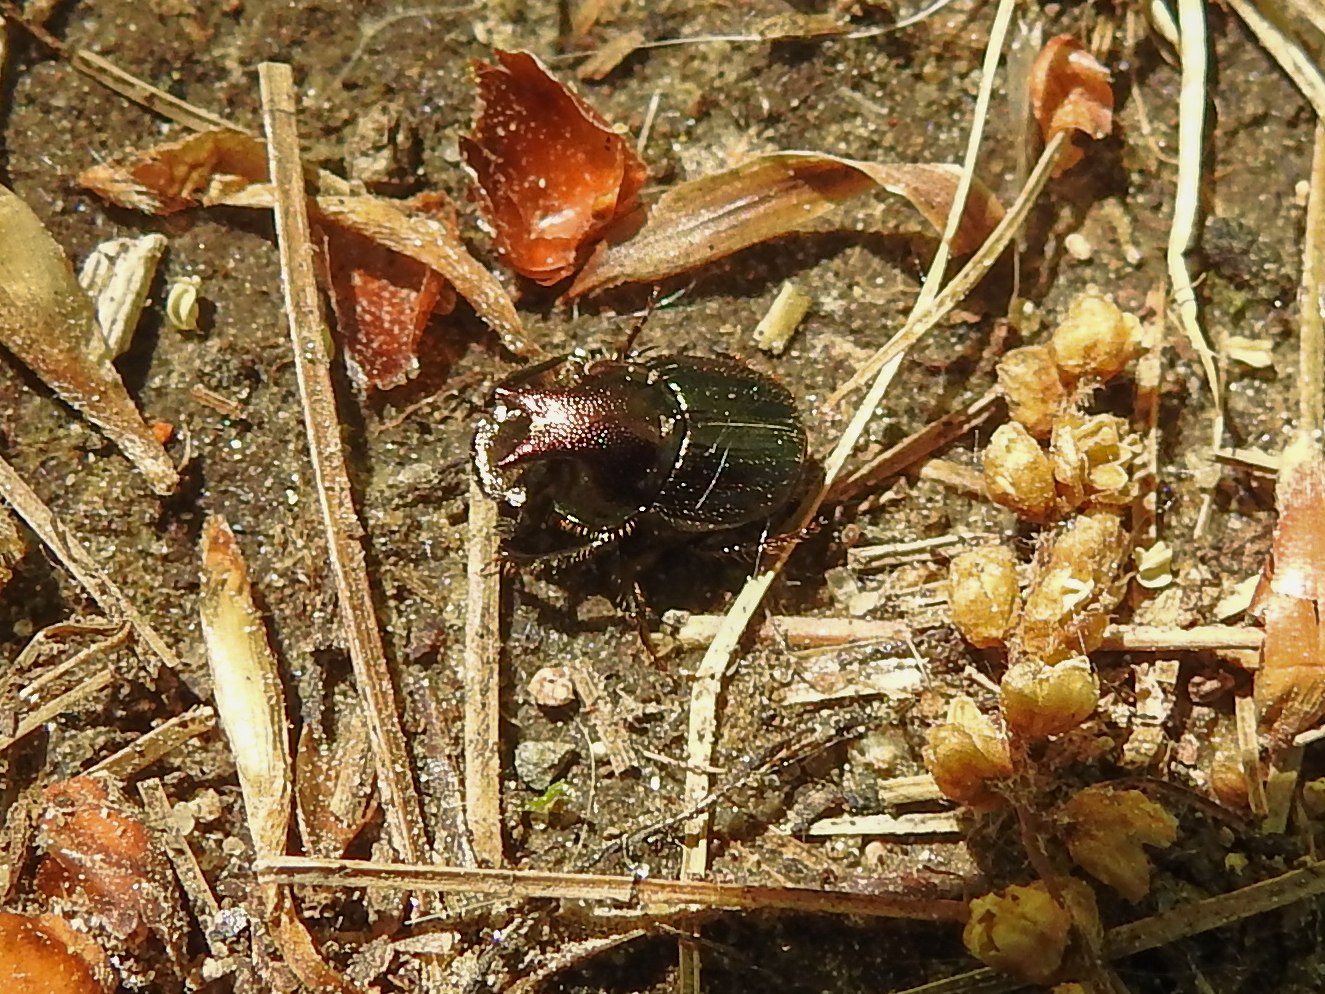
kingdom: Animalia
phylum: Arthropoda
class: Insecta
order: Coleoptera
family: Scarabaeidae
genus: Onthophagus
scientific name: Onthophagus orpheus
